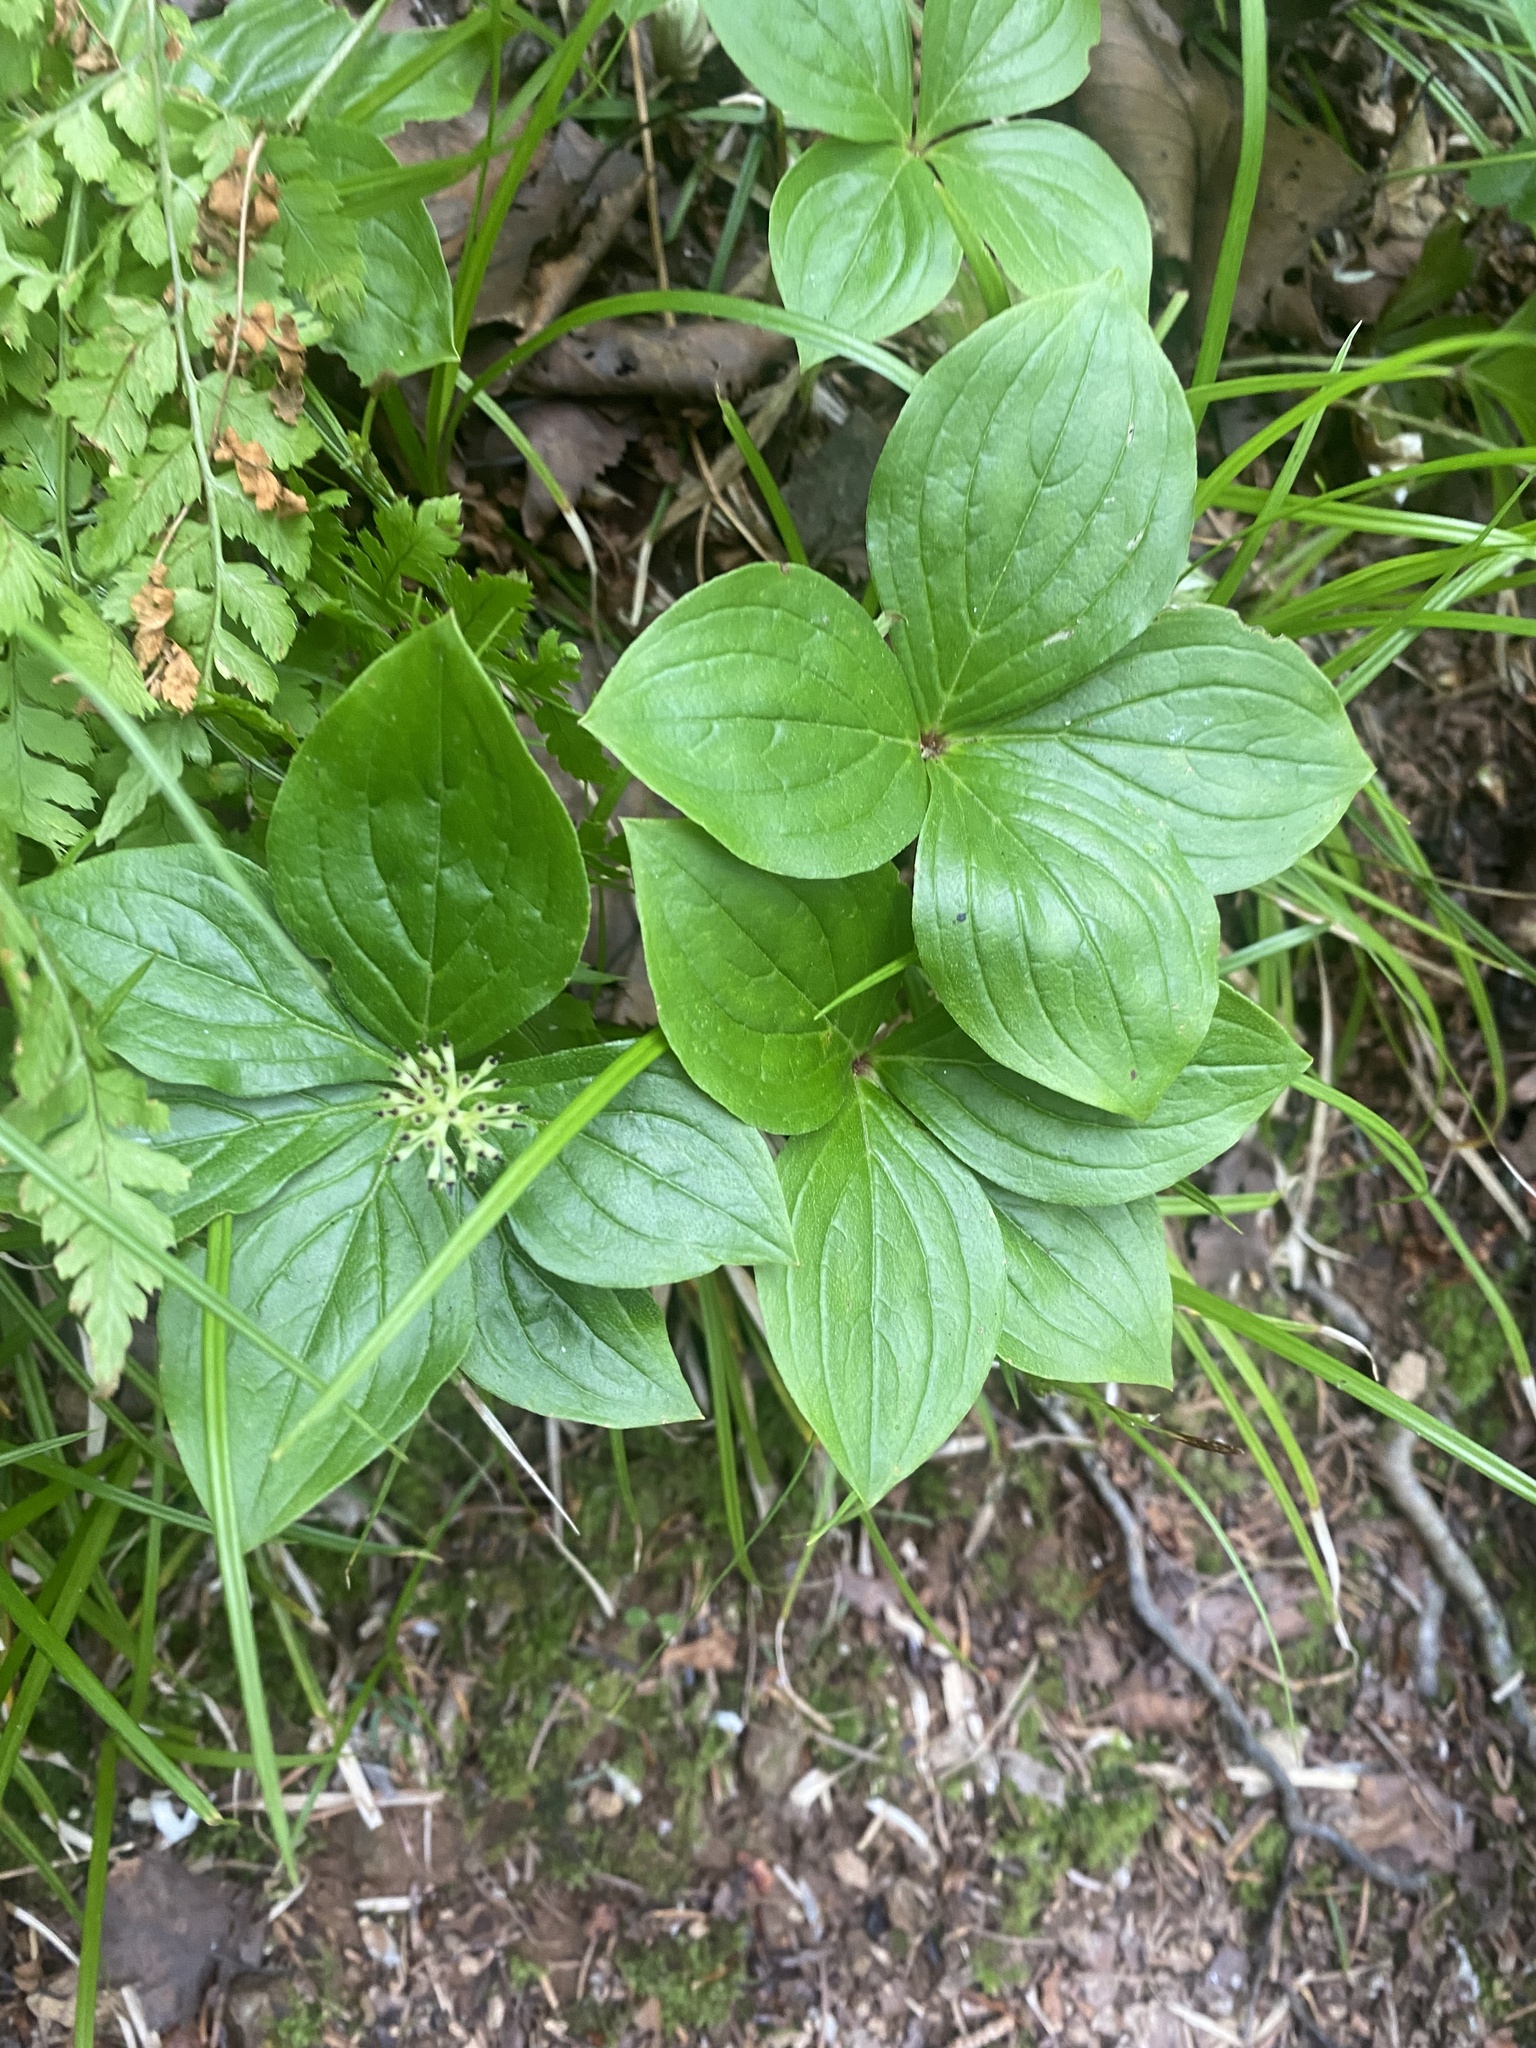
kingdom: Plantae
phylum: Tracheophyta
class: Magnoliopsida
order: Cornales
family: Cornaceae
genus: Cornus
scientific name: Cornus canadensis
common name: Creeping dogwood
